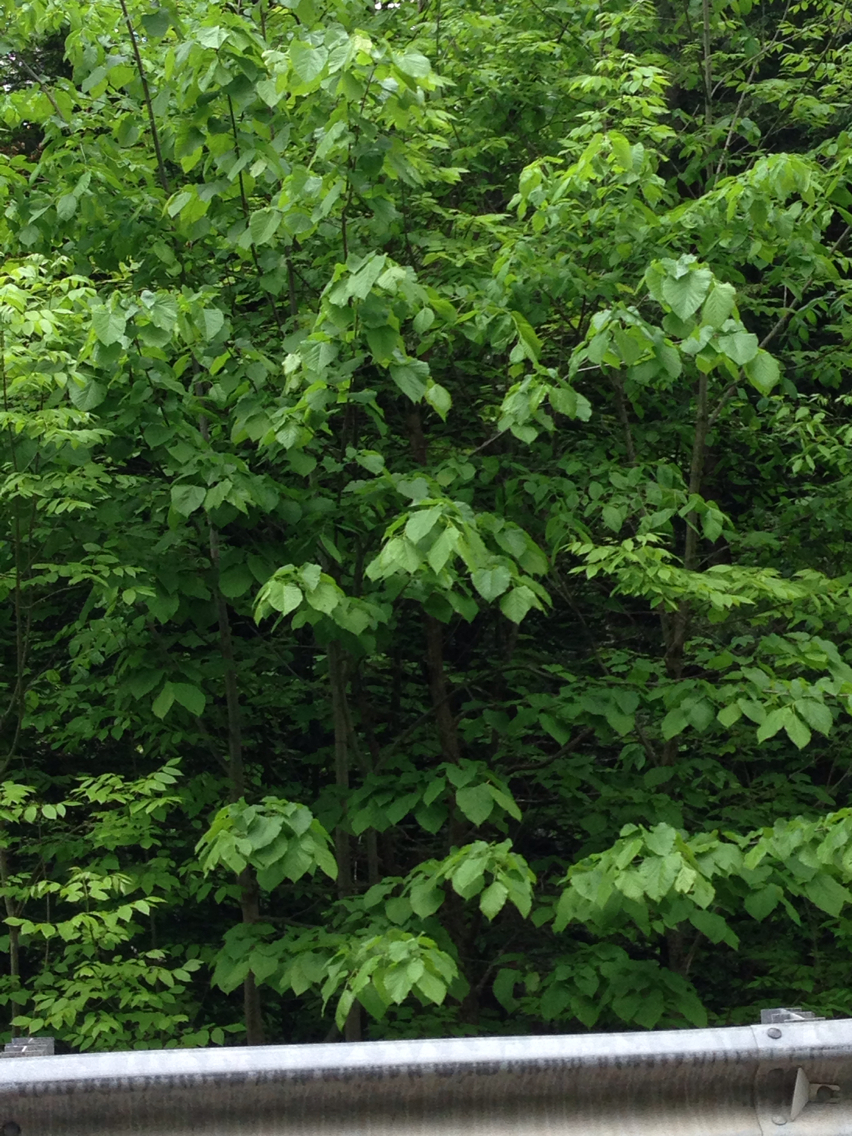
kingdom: Plantae
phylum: Tracheophyta
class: Magnoliopsida
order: Malvales
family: Malvaceae
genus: Tilia
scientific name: Tilia americana
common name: Basswood
